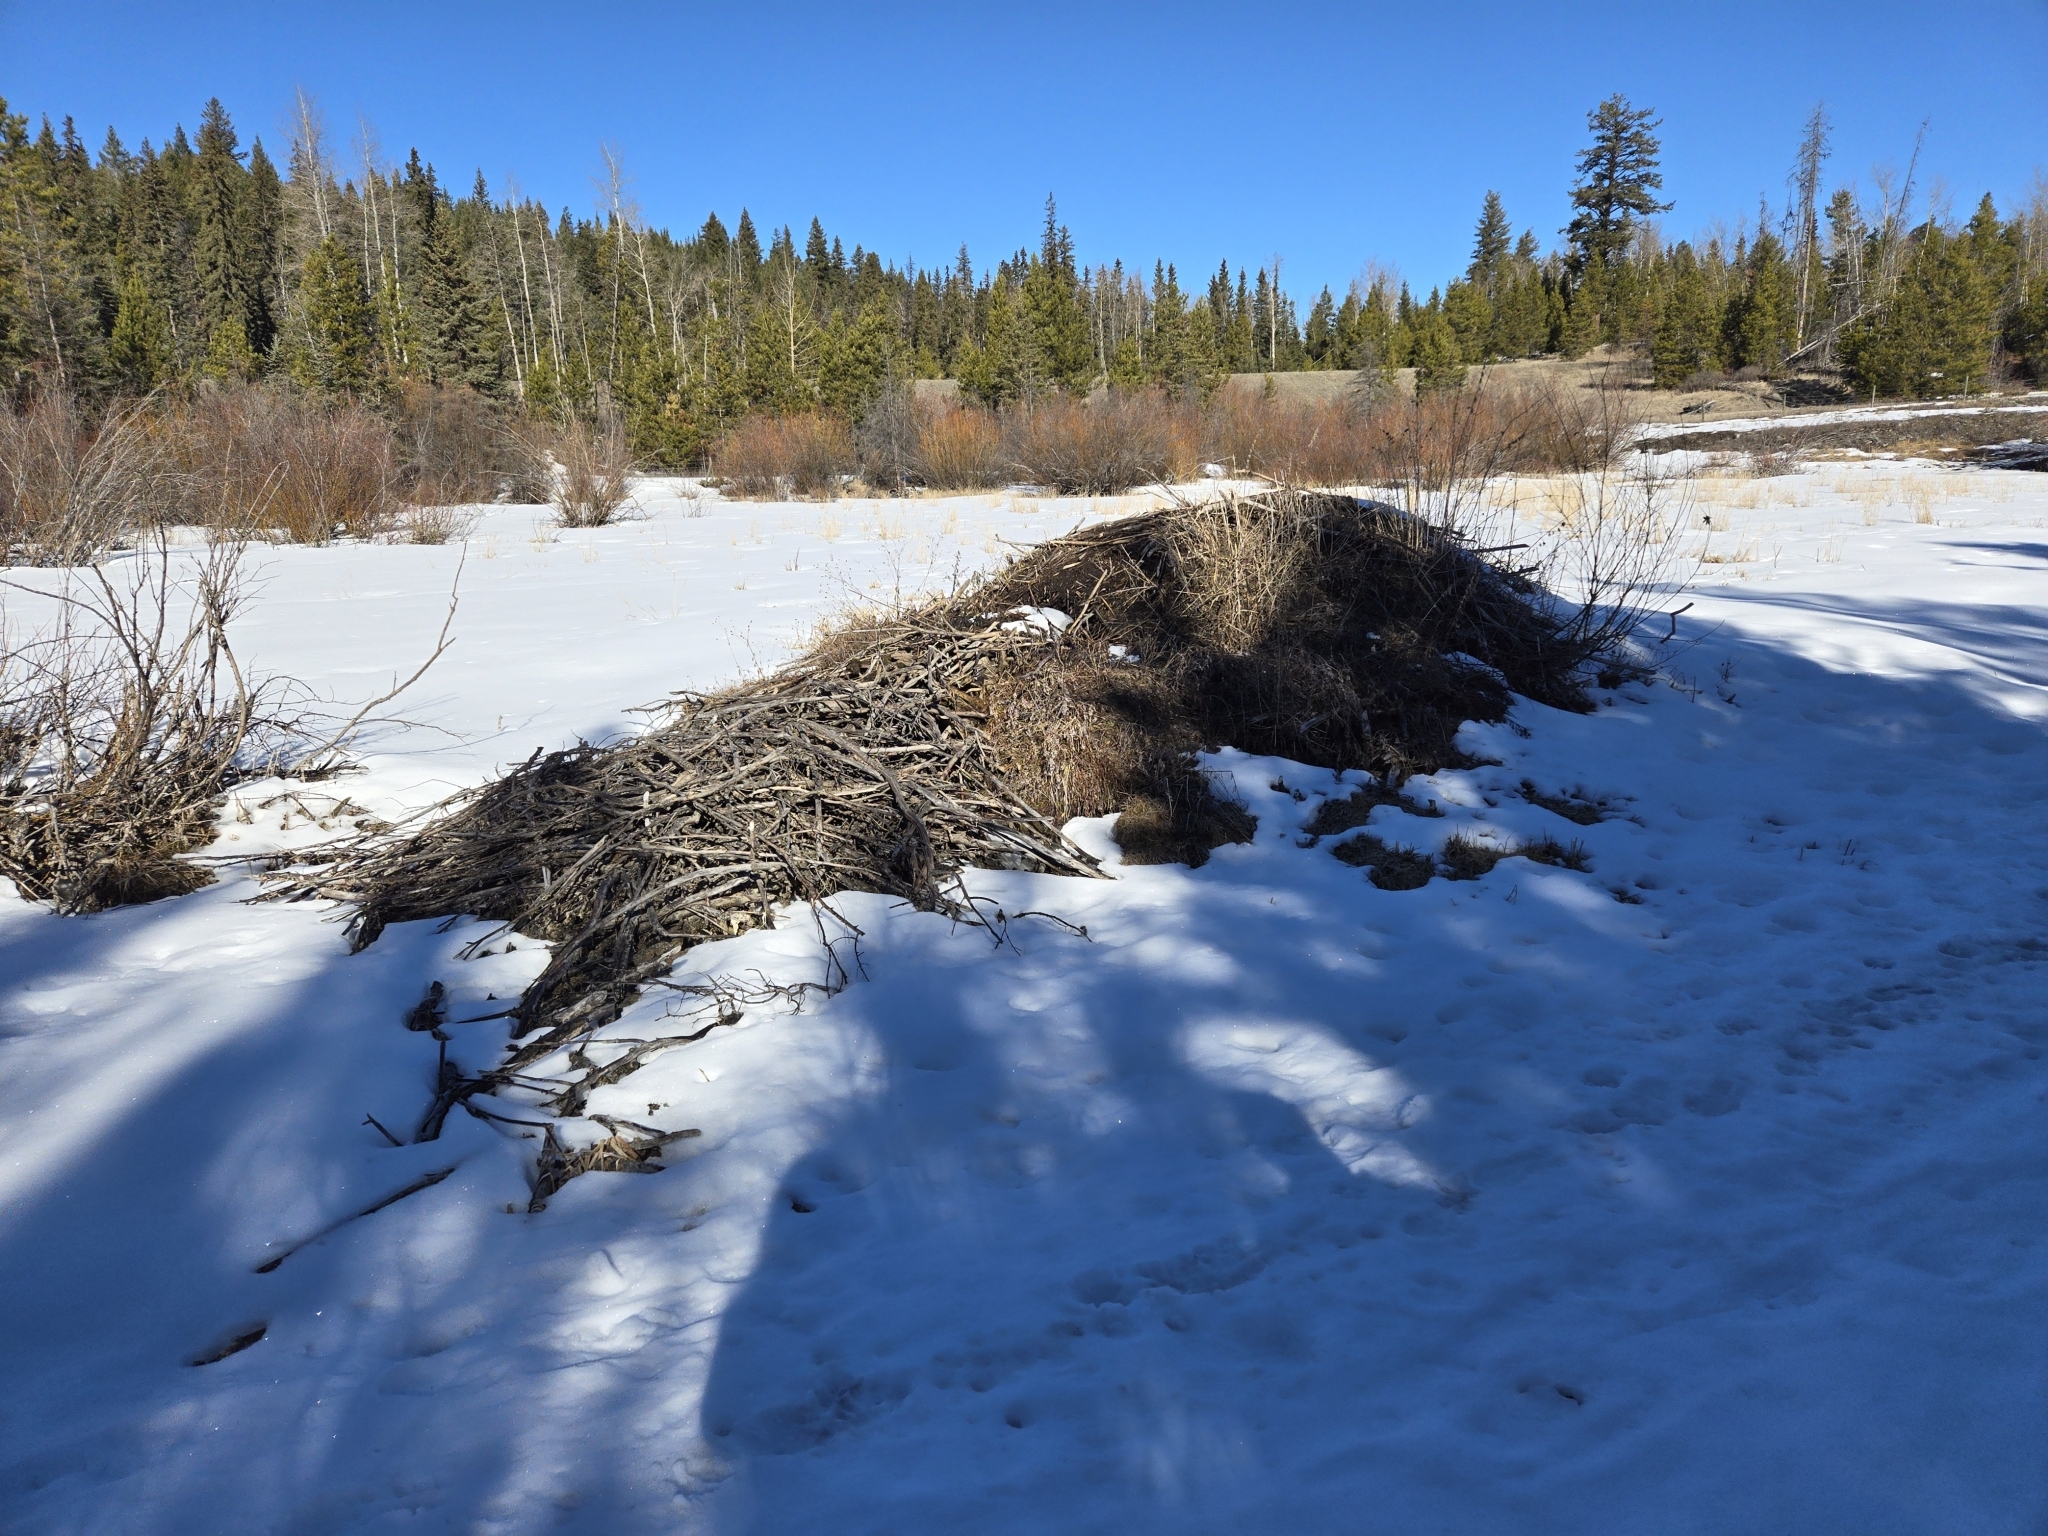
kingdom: Animalia
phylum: Chordata
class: Mammalia
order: Rodentia
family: Castoridae
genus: Castor
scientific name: Castor canadensis
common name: American beaver
